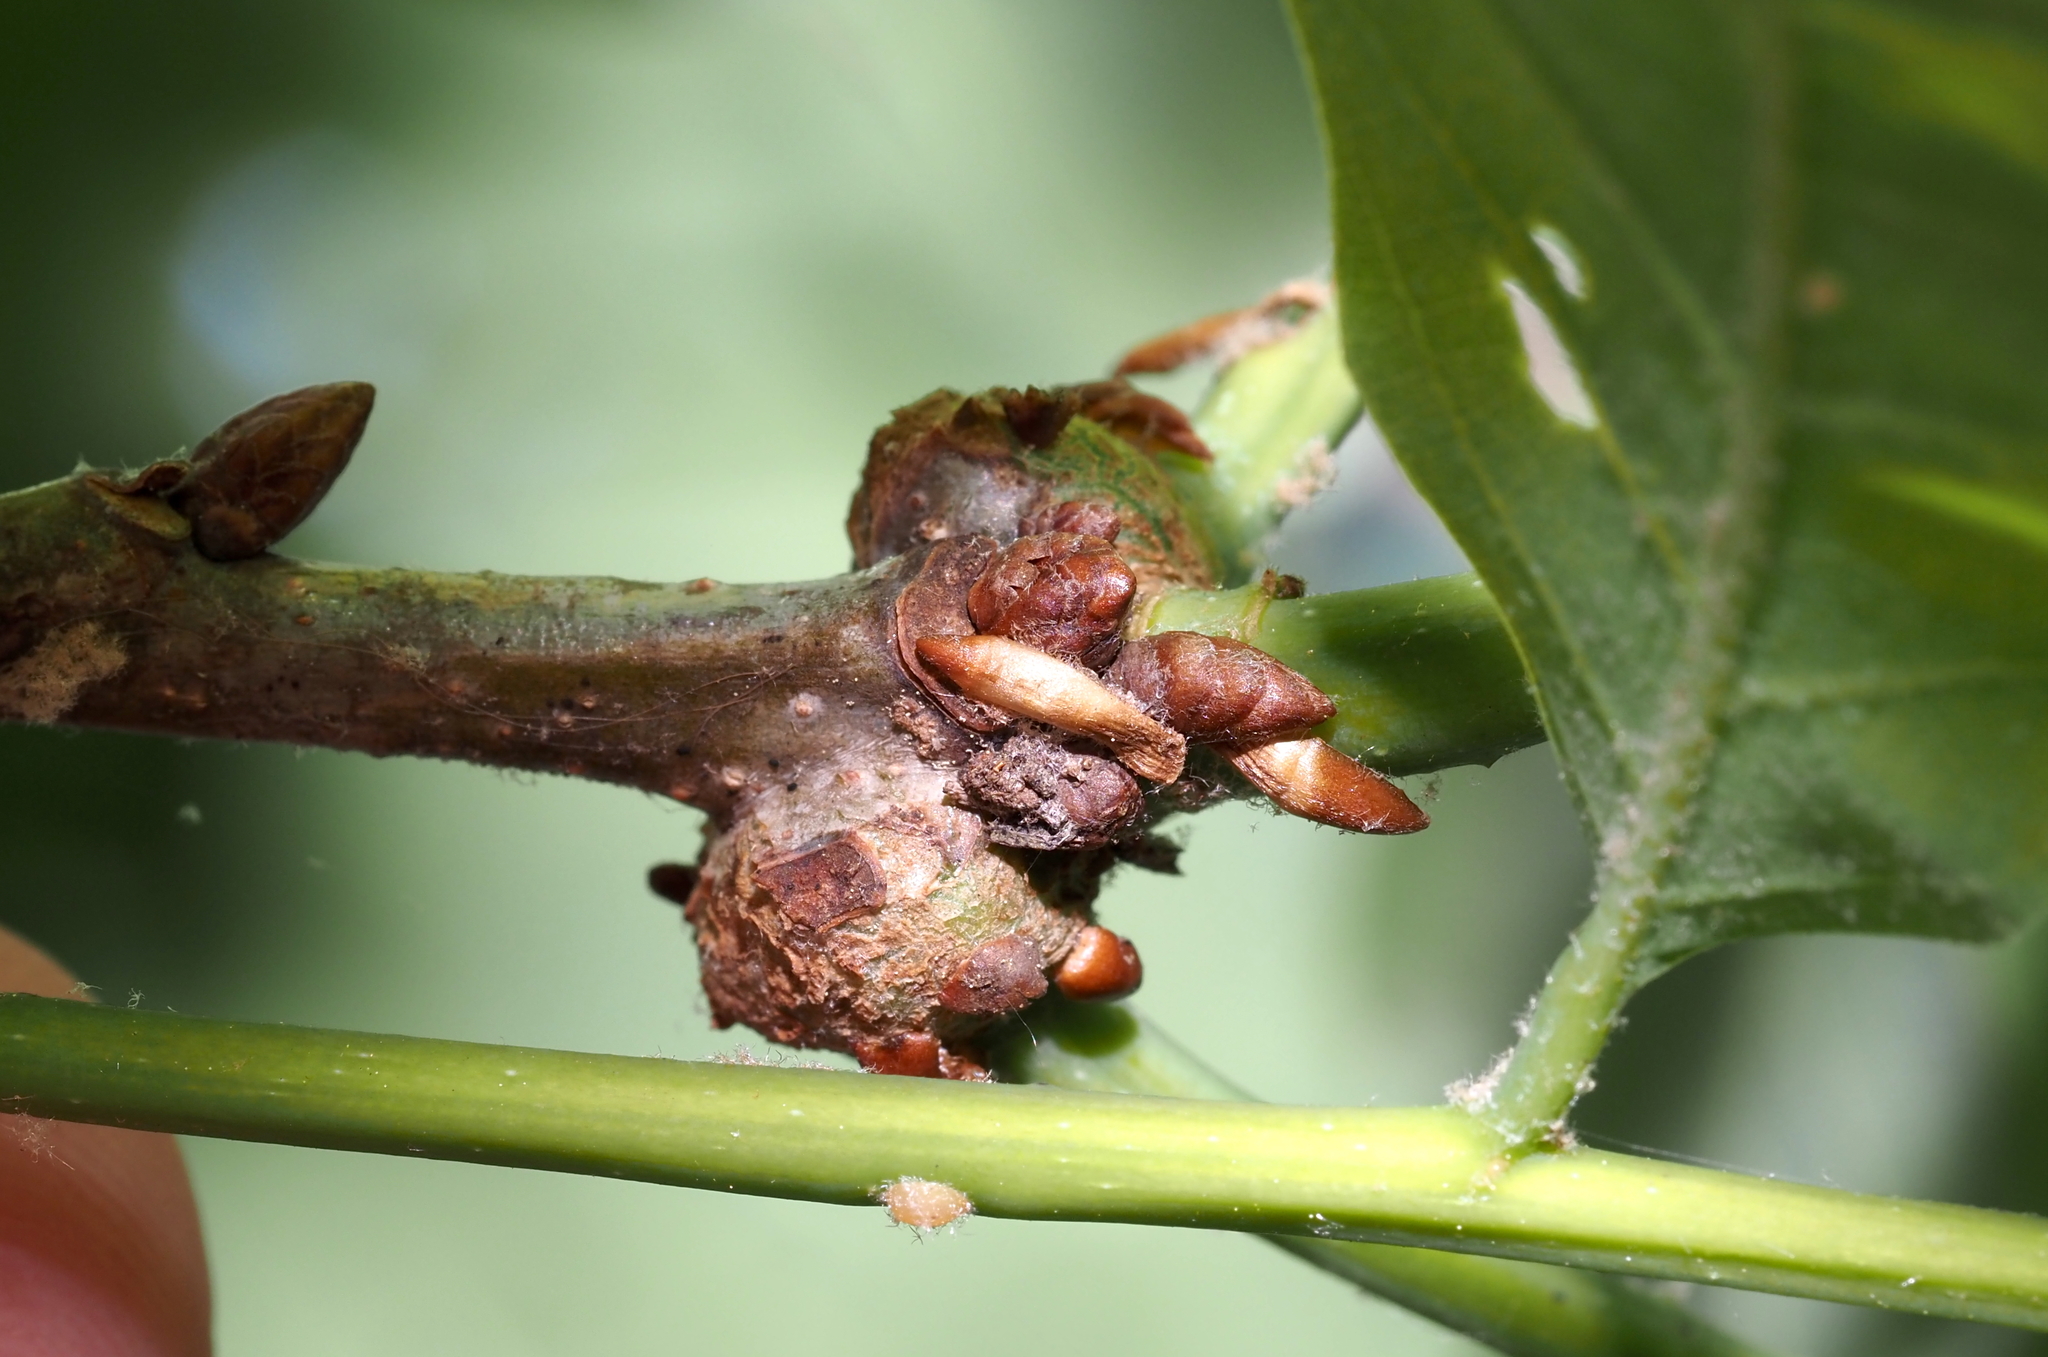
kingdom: Animalia
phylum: Arthropoda
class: Insecta
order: Hymenoptera
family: Cynipidae
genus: Loxaulus
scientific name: Loxaulus
